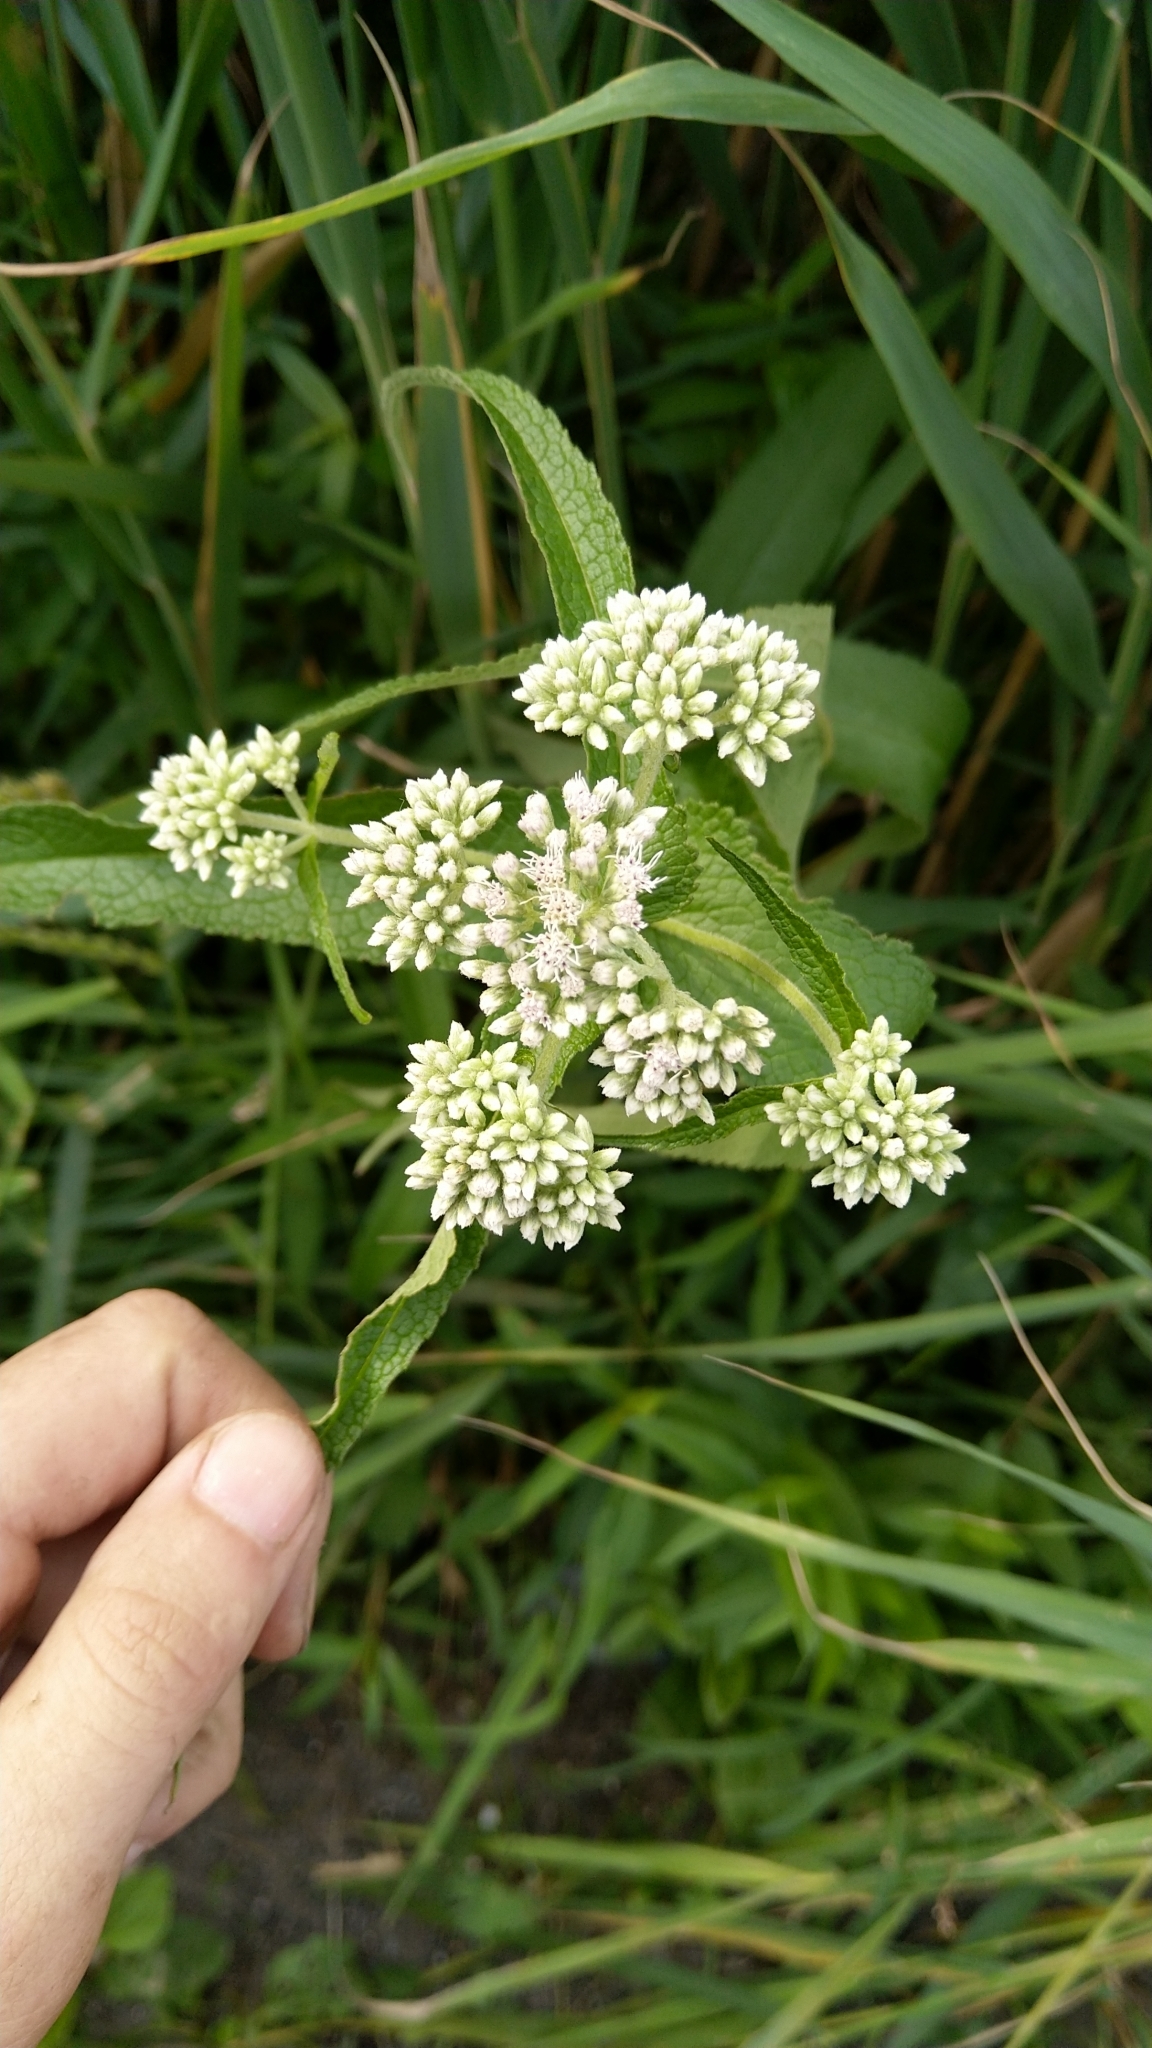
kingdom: Plantae
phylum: Tracheophyta
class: Magnoliopsida
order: Asterales
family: Asteraceae
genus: Eupatorium
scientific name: Eupatorium perfoliatum
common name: Boneset
